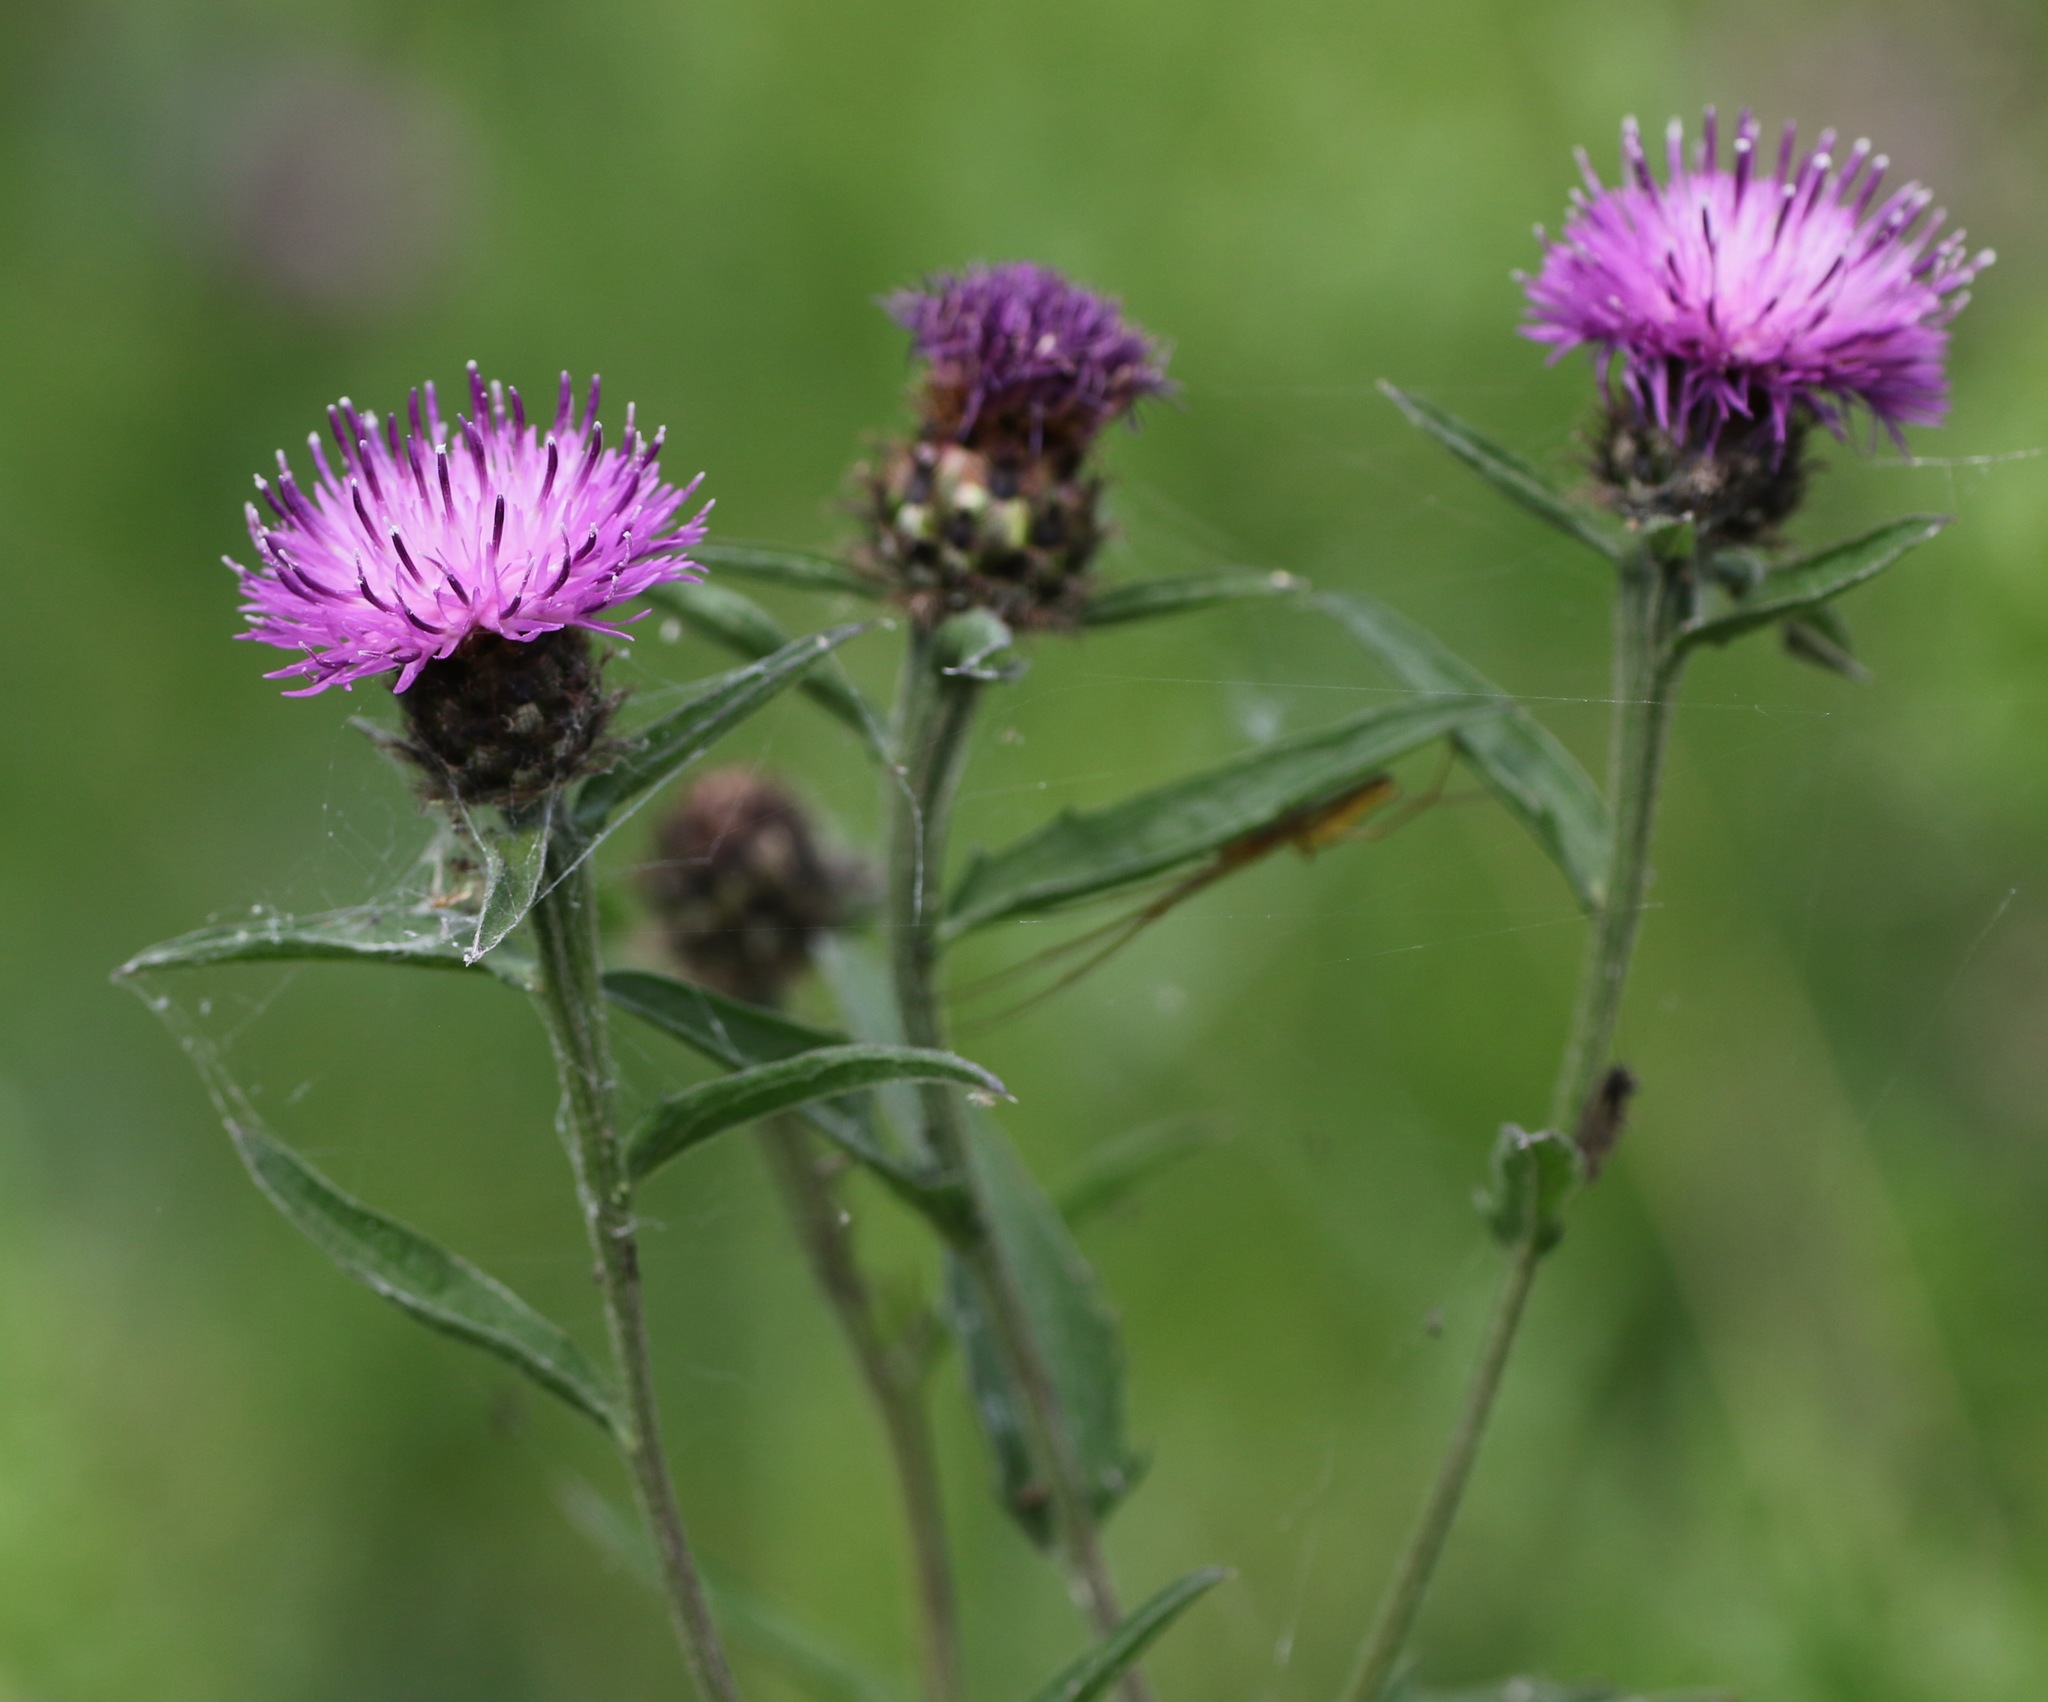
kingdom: Plantae
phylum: Tracheophyta
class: Magnoliopsida
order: Asterales
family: Asteraceae
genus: Centaurea
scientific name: Centaurea nigra
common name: Lesser knapweed
